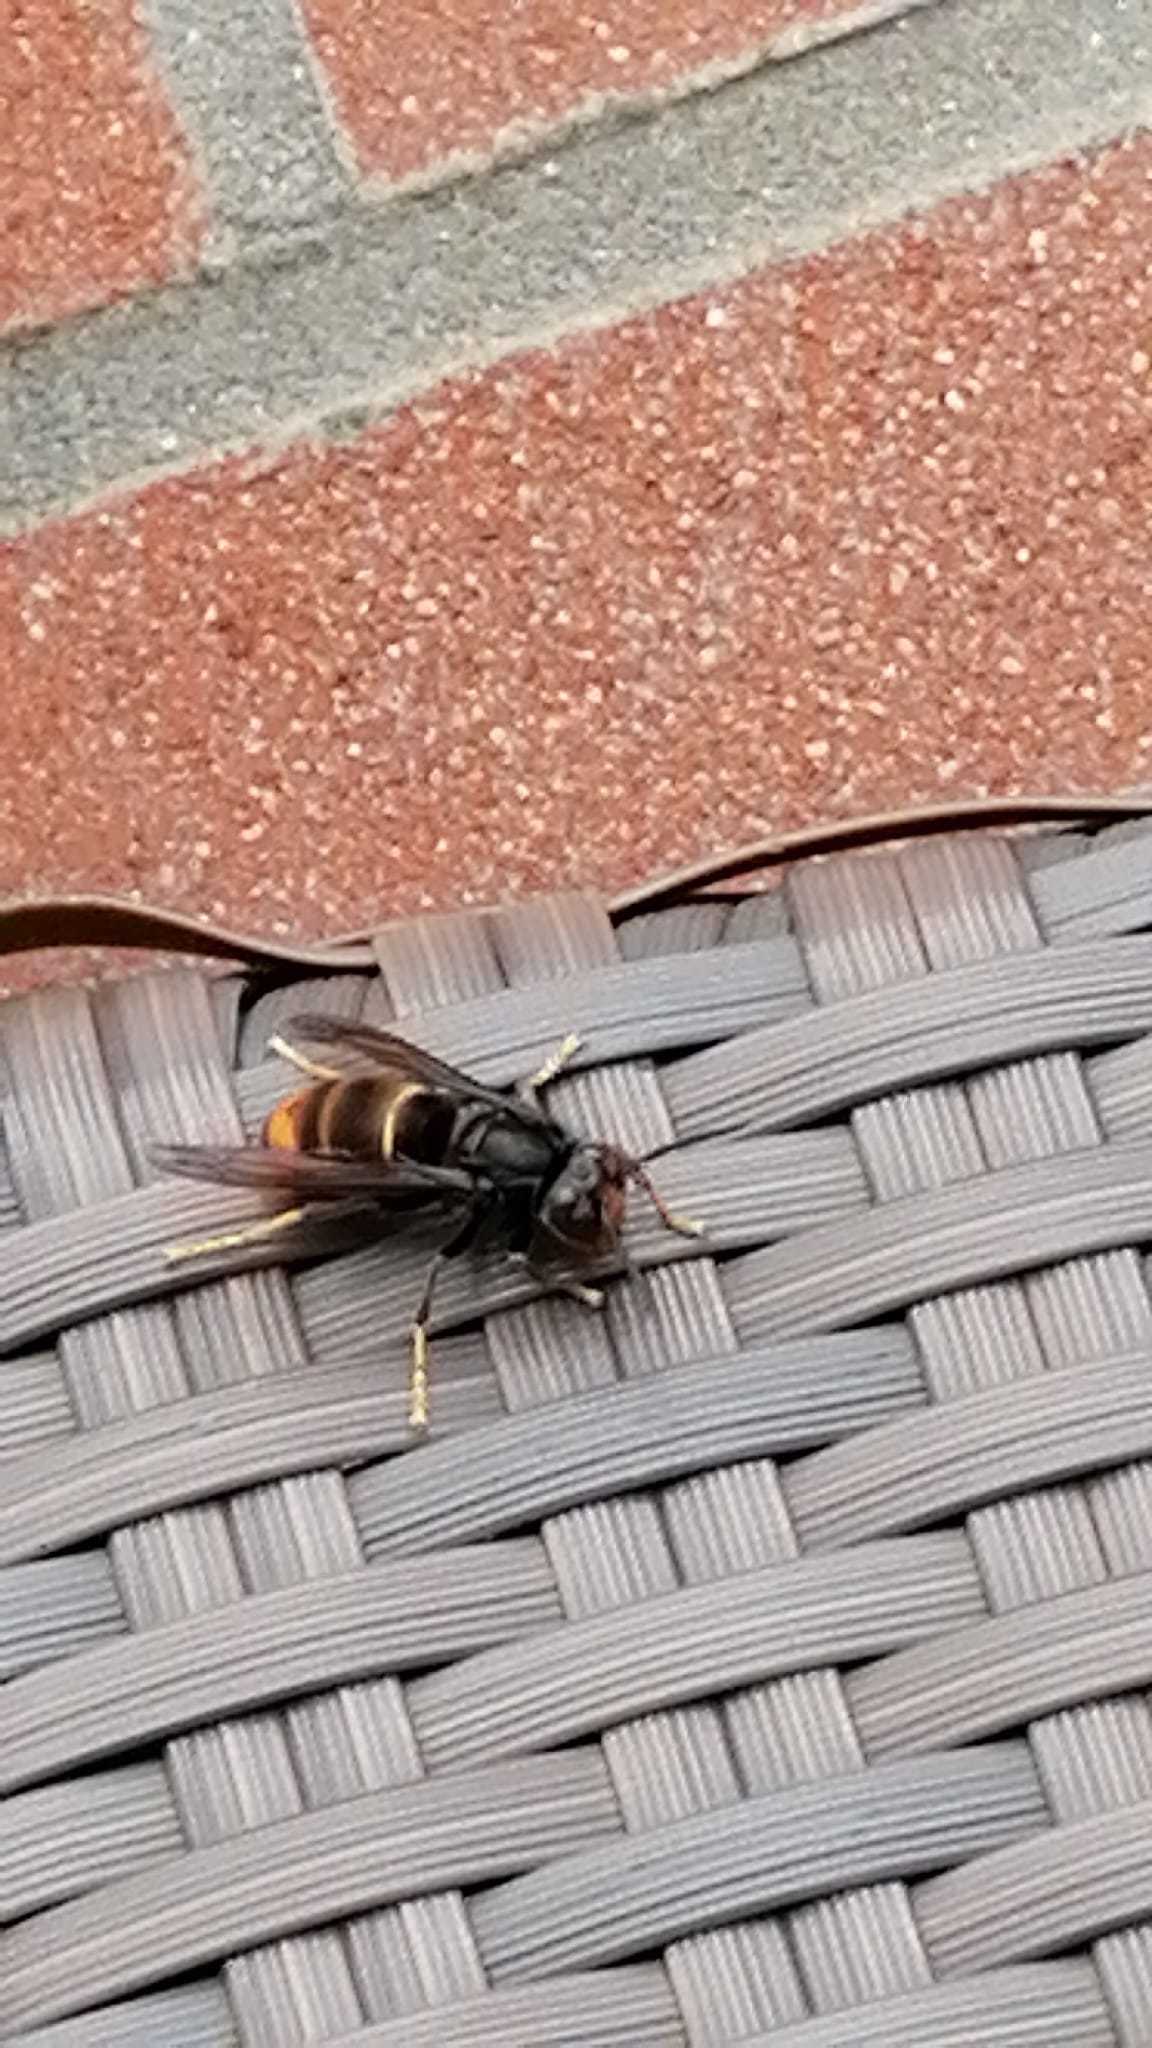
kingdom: Animalia
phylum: Arthropoda
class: Insecta
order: Hymenoptera
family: Vespidae
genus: Vespa
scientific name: Vespa velutina
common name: Asian hornet
